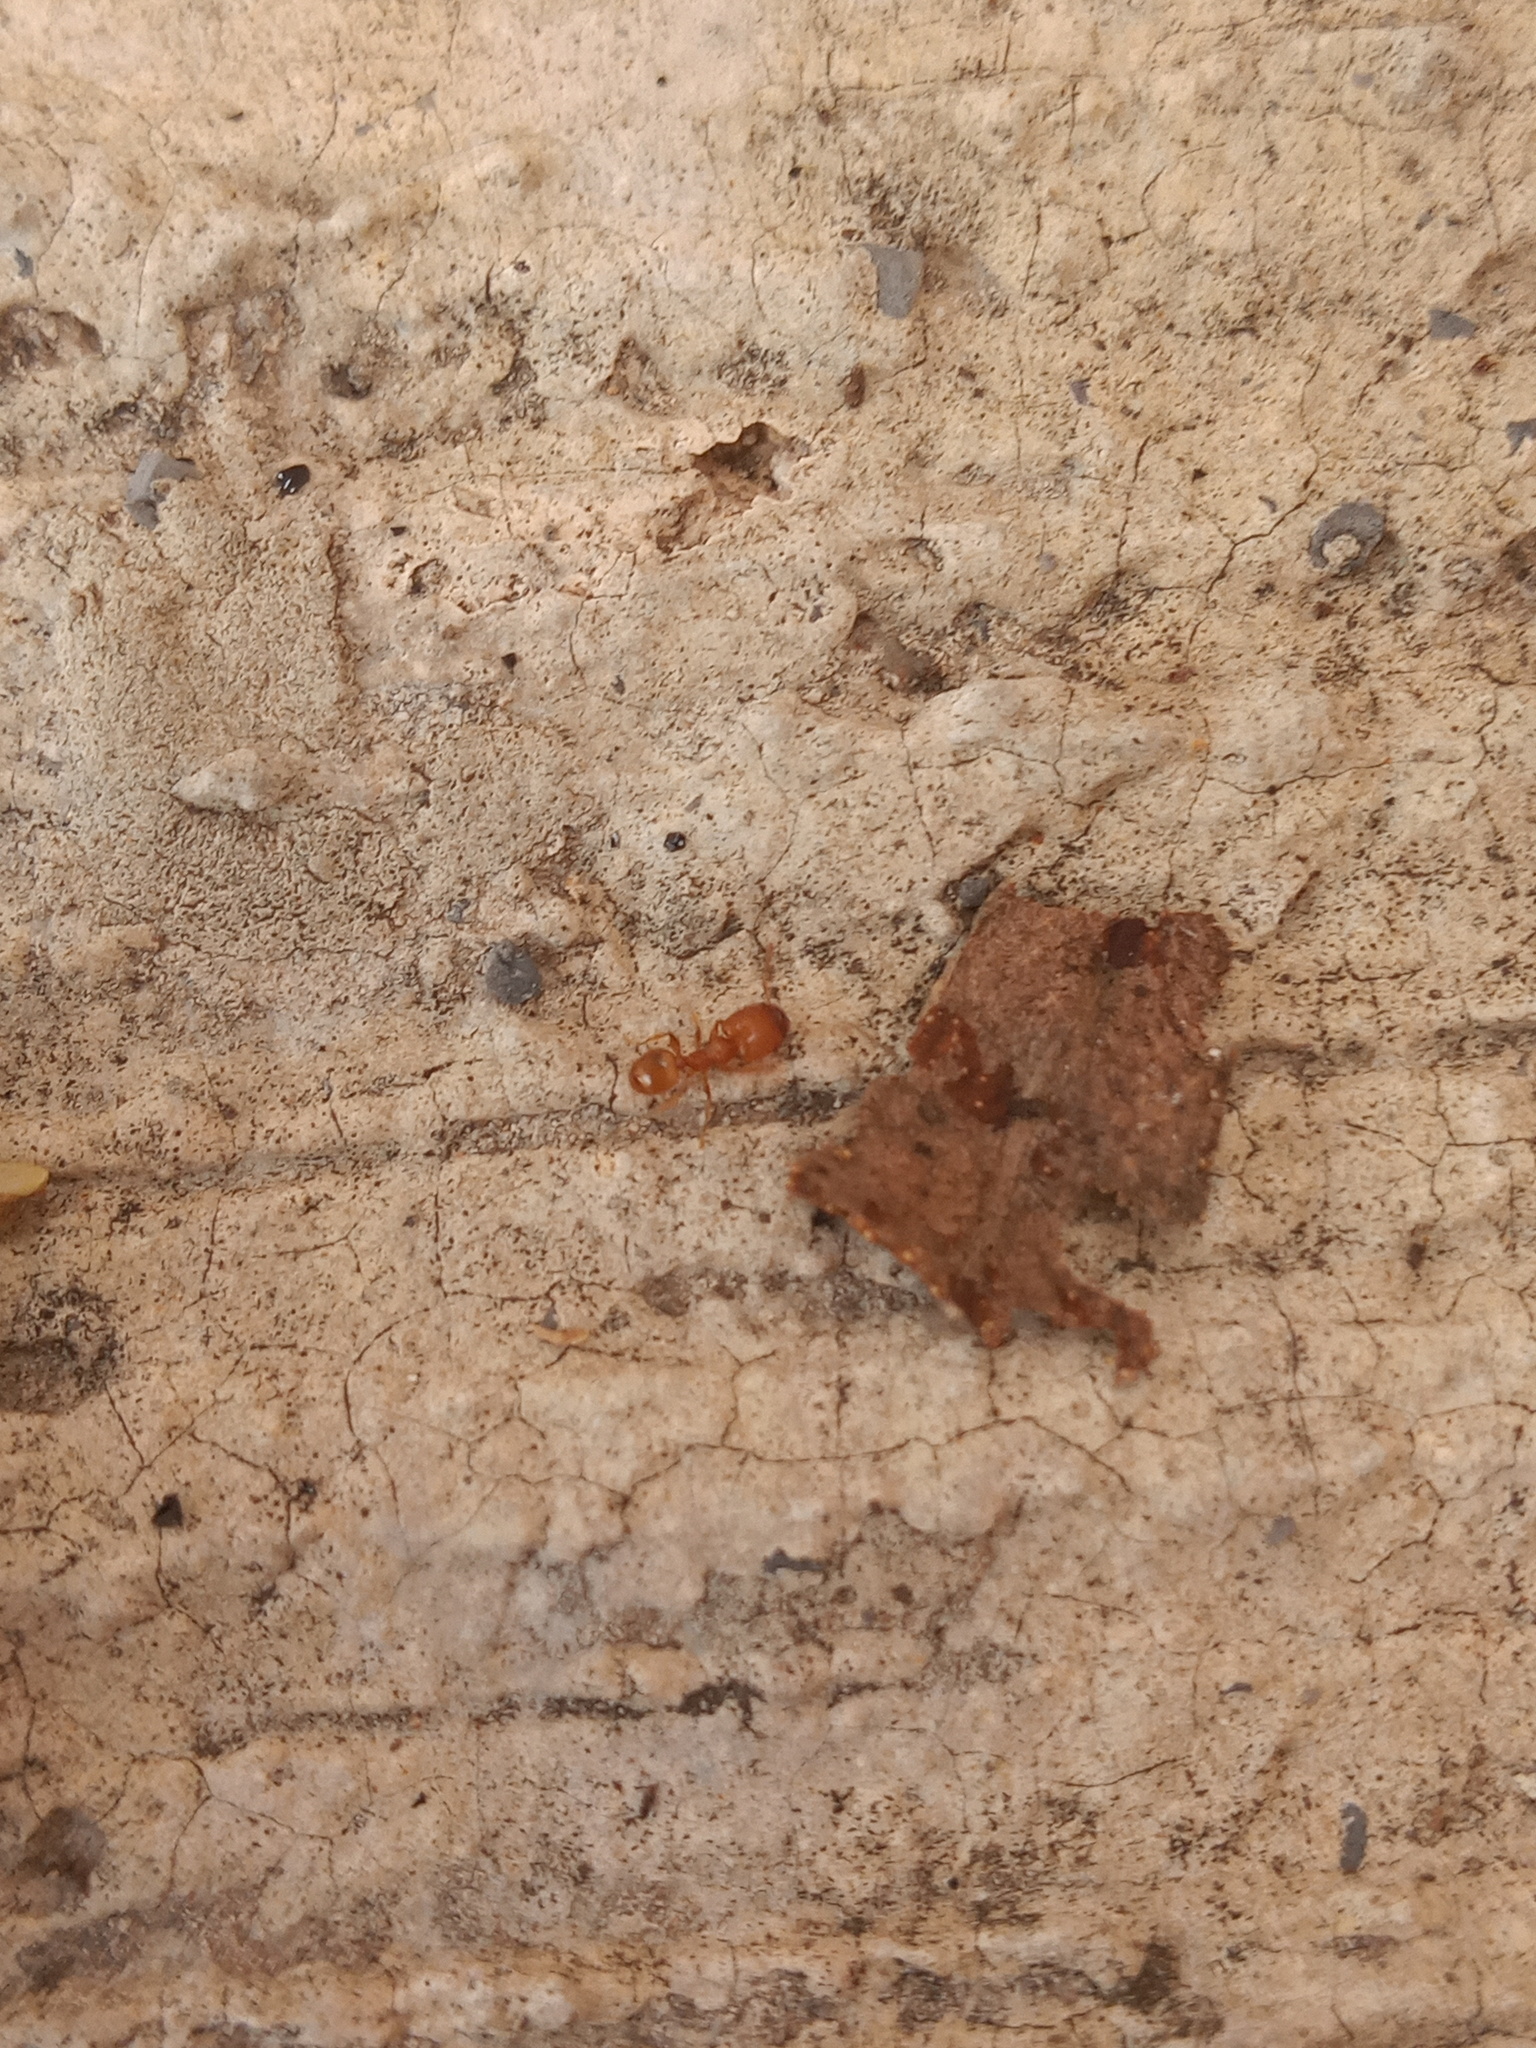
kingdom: Animalia
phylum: Arthropoda
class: Insecta
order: Hymenoptera
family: Formicidae
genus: Pheidole
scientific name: Pheidole bilimeki
